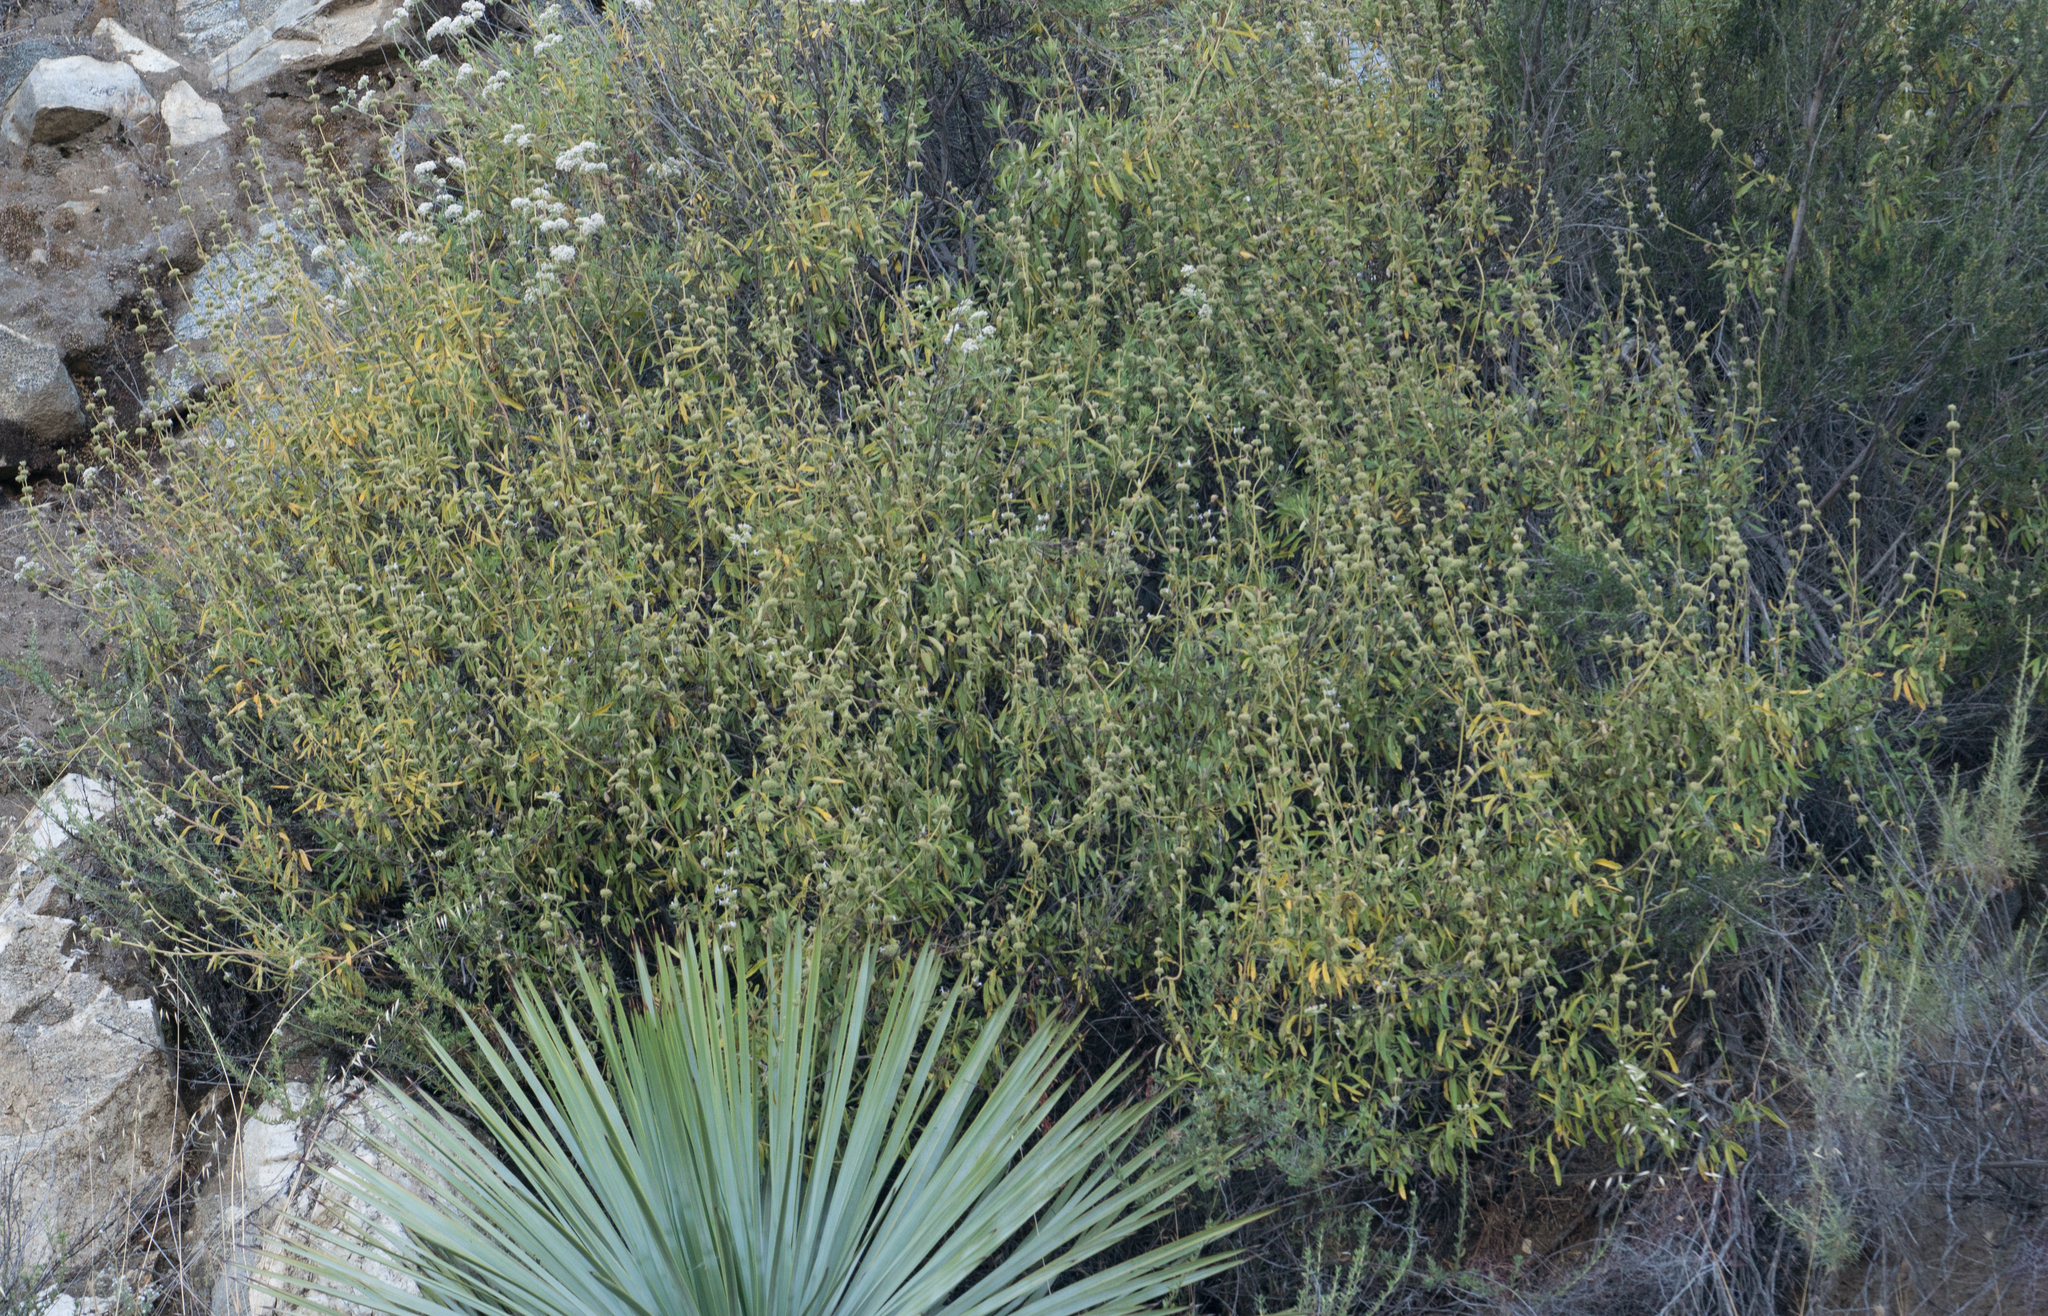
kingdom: Plantae
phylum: Tracheophyta
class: Magnoliopsida
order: Lamiales
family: Lamiaceae
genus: Salvia
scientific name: Salvia mellifera
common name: Black sage
